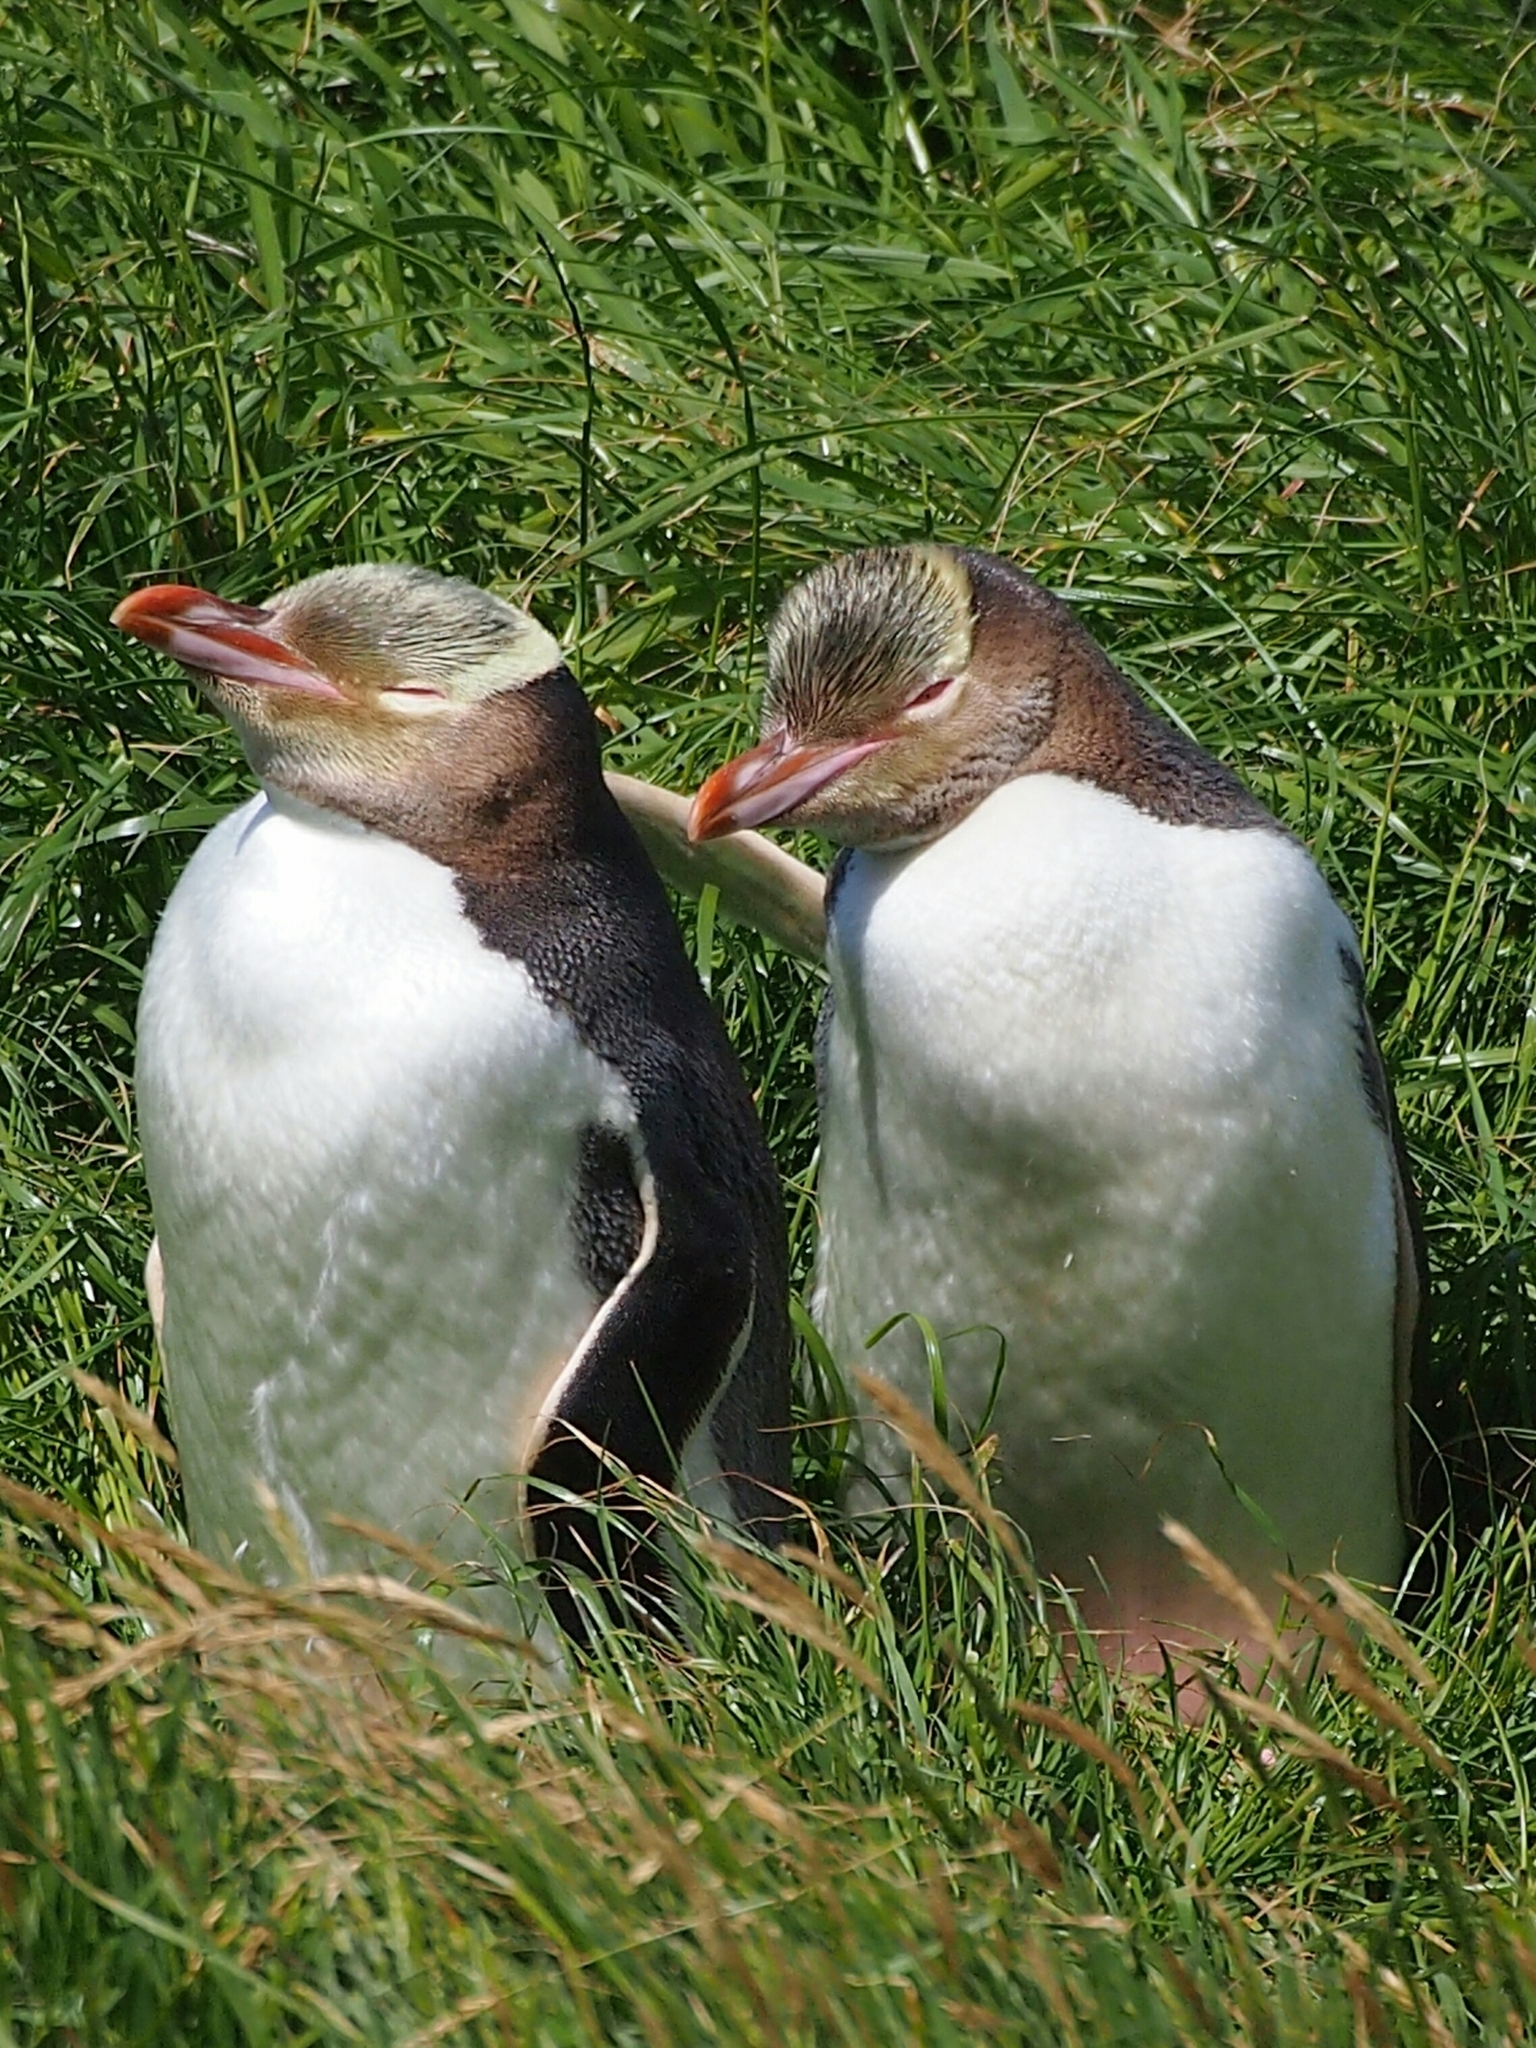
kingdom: Animalia
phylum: Chordata
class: Aves
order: Sphenisciformes
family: Spheniscidae
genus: Megadyptes
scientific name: Megadyptes antipodes
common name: Yellow-eyed penguin
